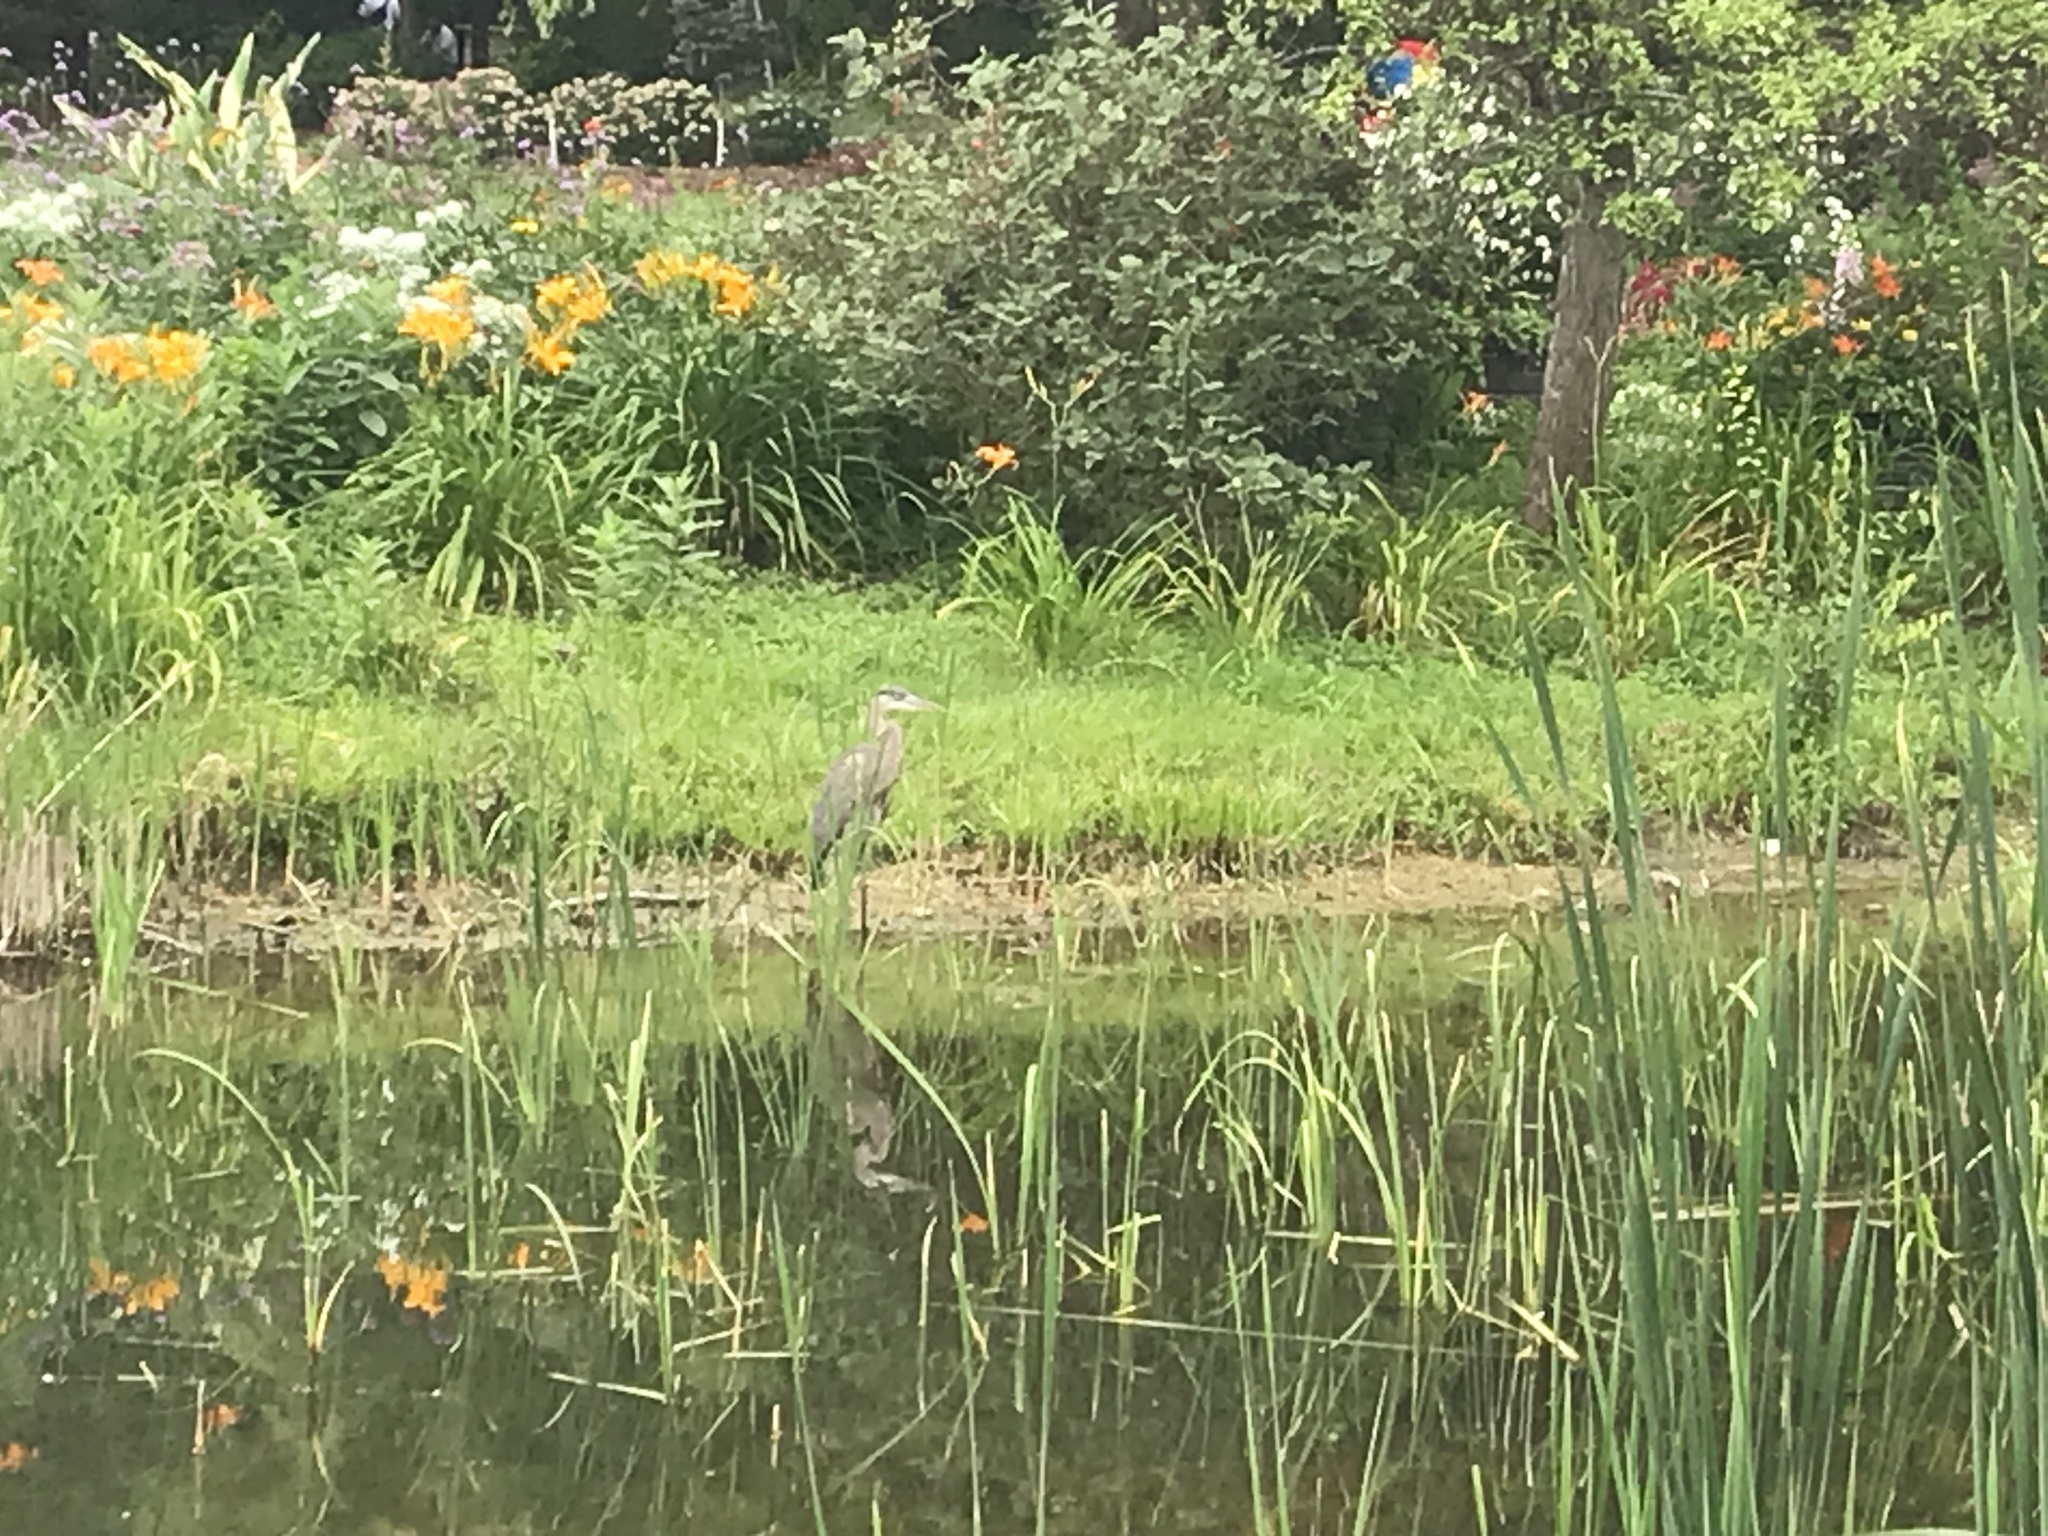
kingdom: Animalia
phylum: Chordata
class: Aves
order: Pelecaniformes
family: Ardeidae
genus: Ardea
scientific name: Ardea herodias
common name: Great blue heron
